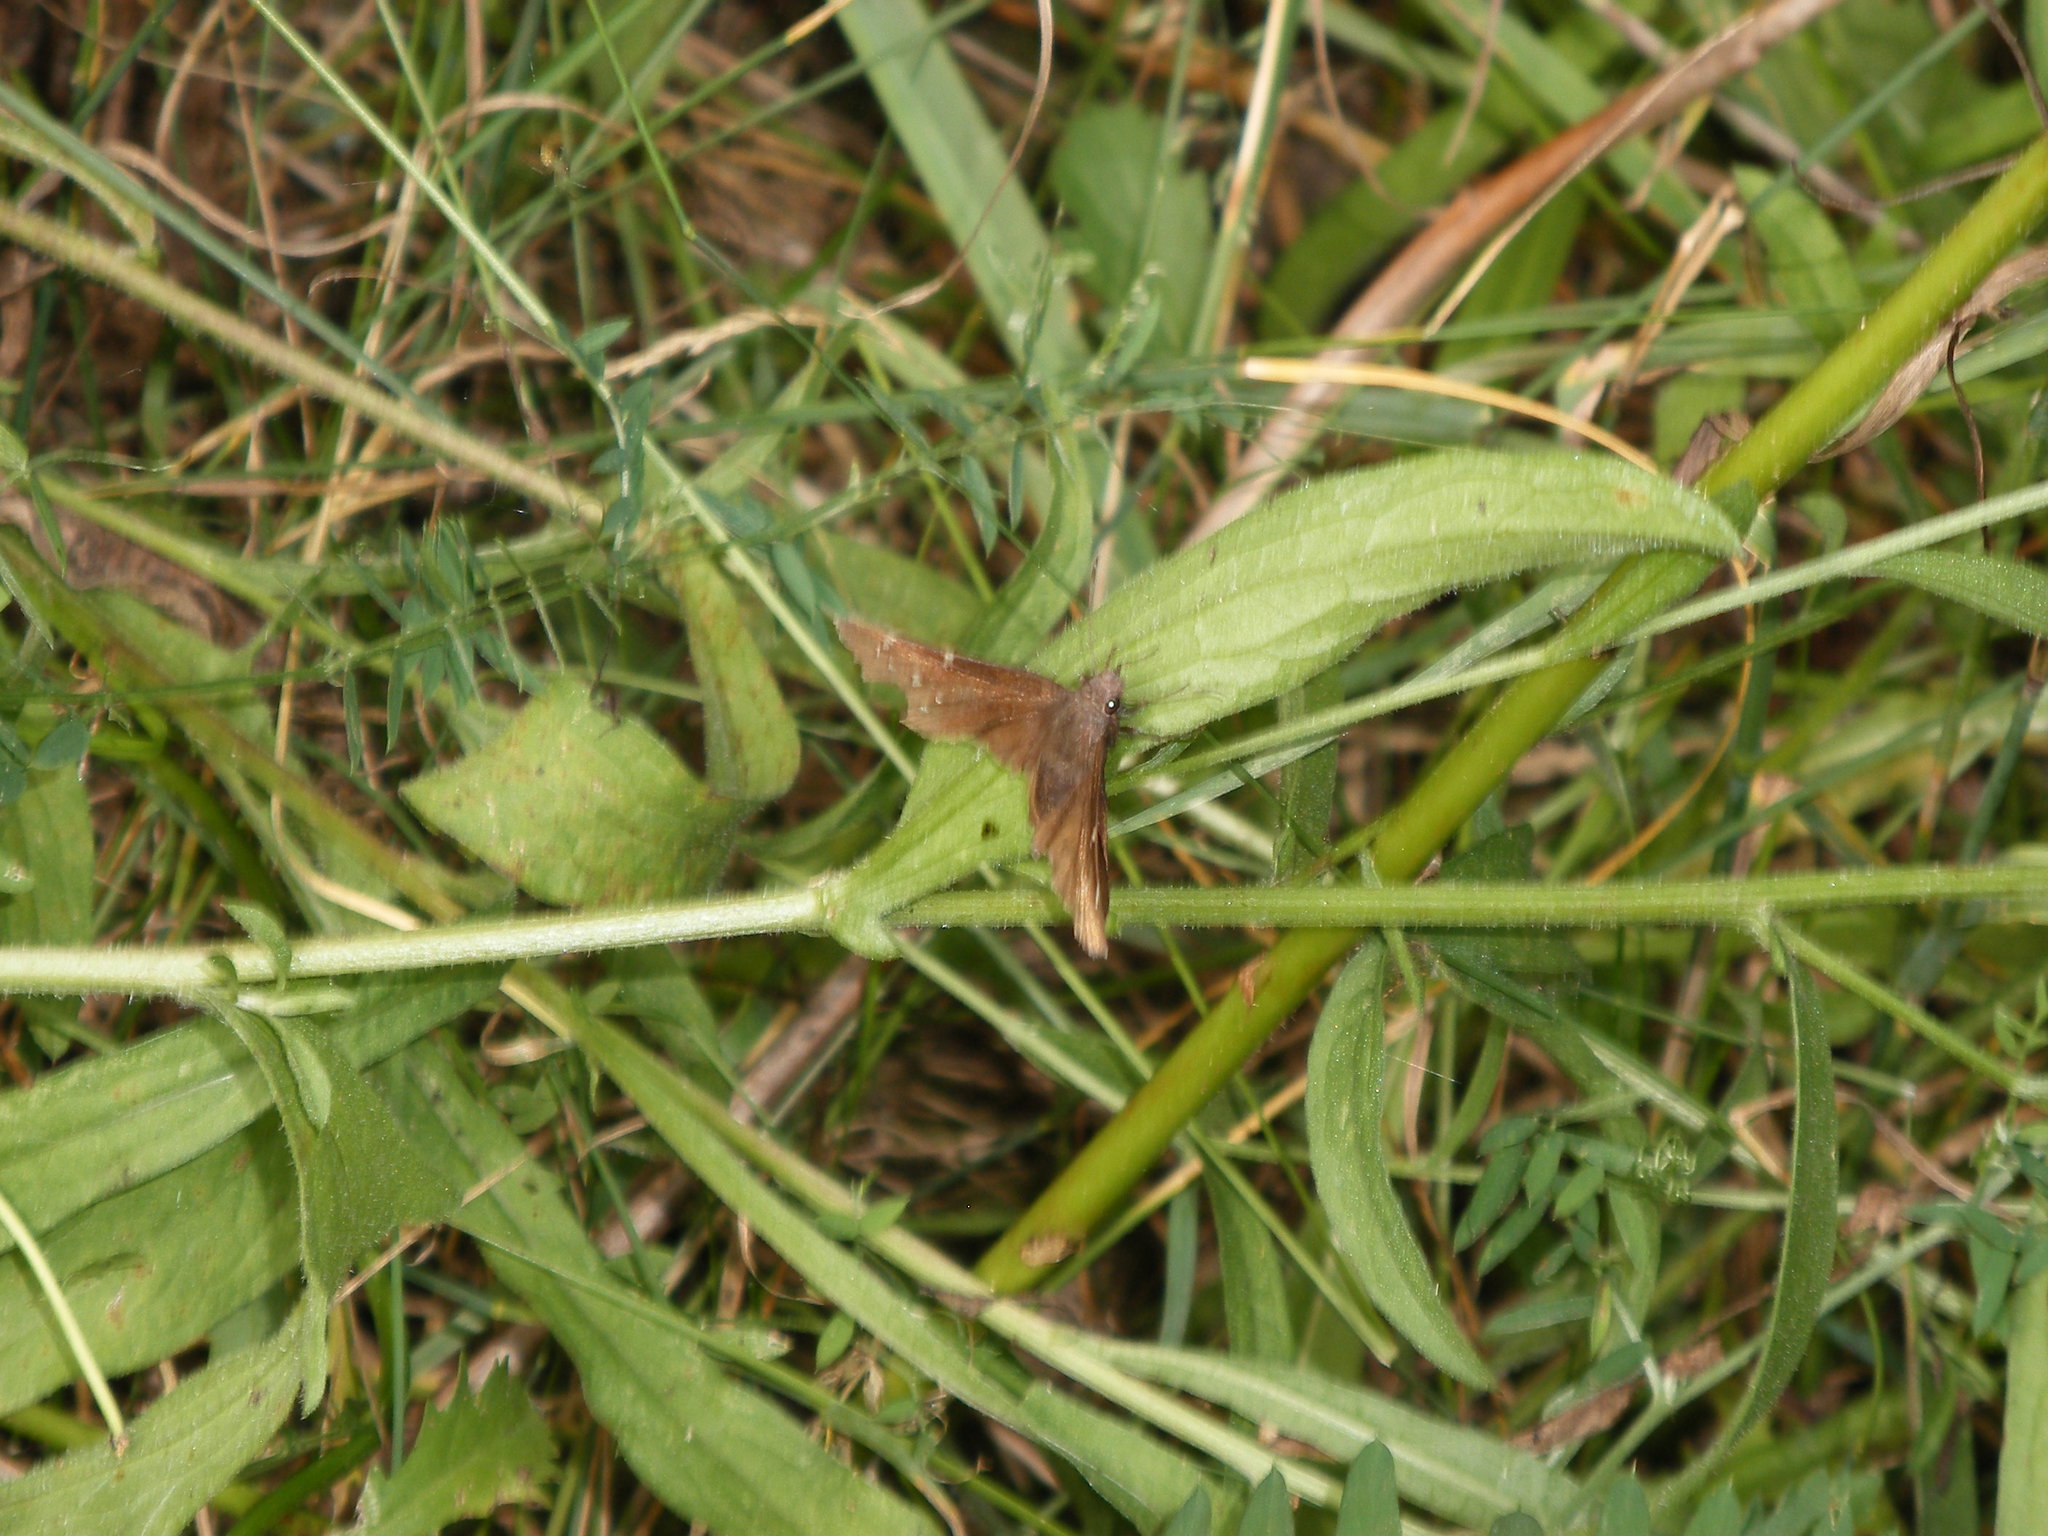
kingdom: Animalia
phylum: Arthropoda
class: Insecta
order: Lepidoptera
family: Hesperiidae
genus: Thorybes
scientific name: Thorybes pylades
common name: Northern cloudywing
